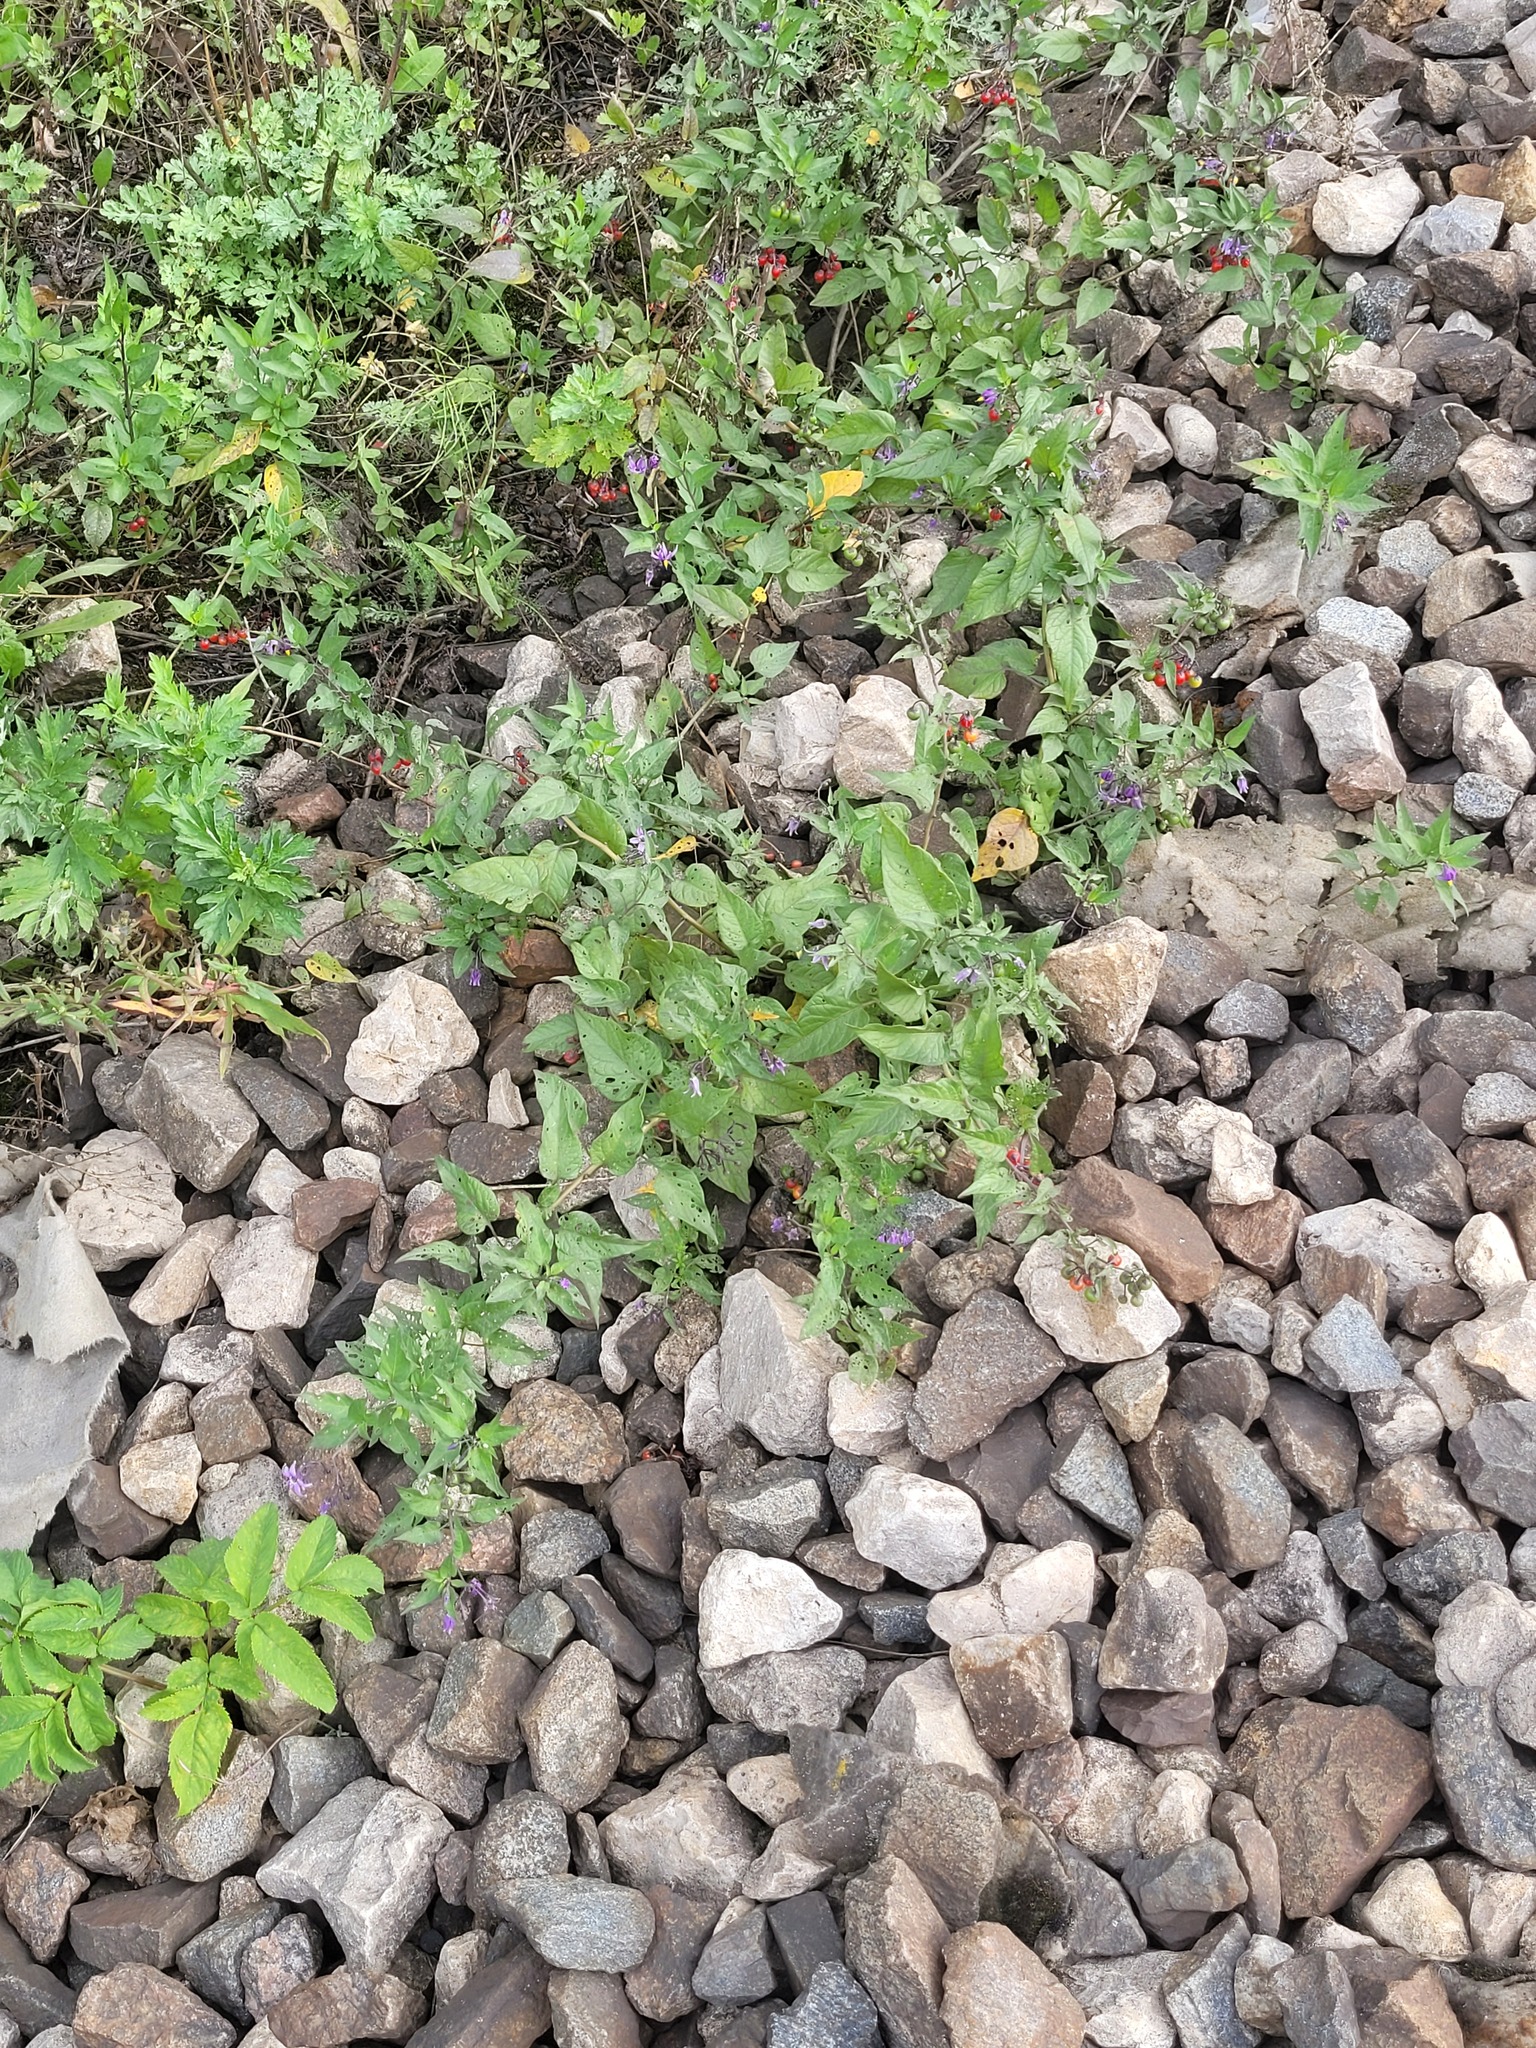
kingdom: Plantae
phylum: Tracheophyta
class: Magnoliopsida
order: Solanales
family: Solanaceae
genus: Solanum
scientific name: Solanum dulcamara
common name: Climbing nightshade
